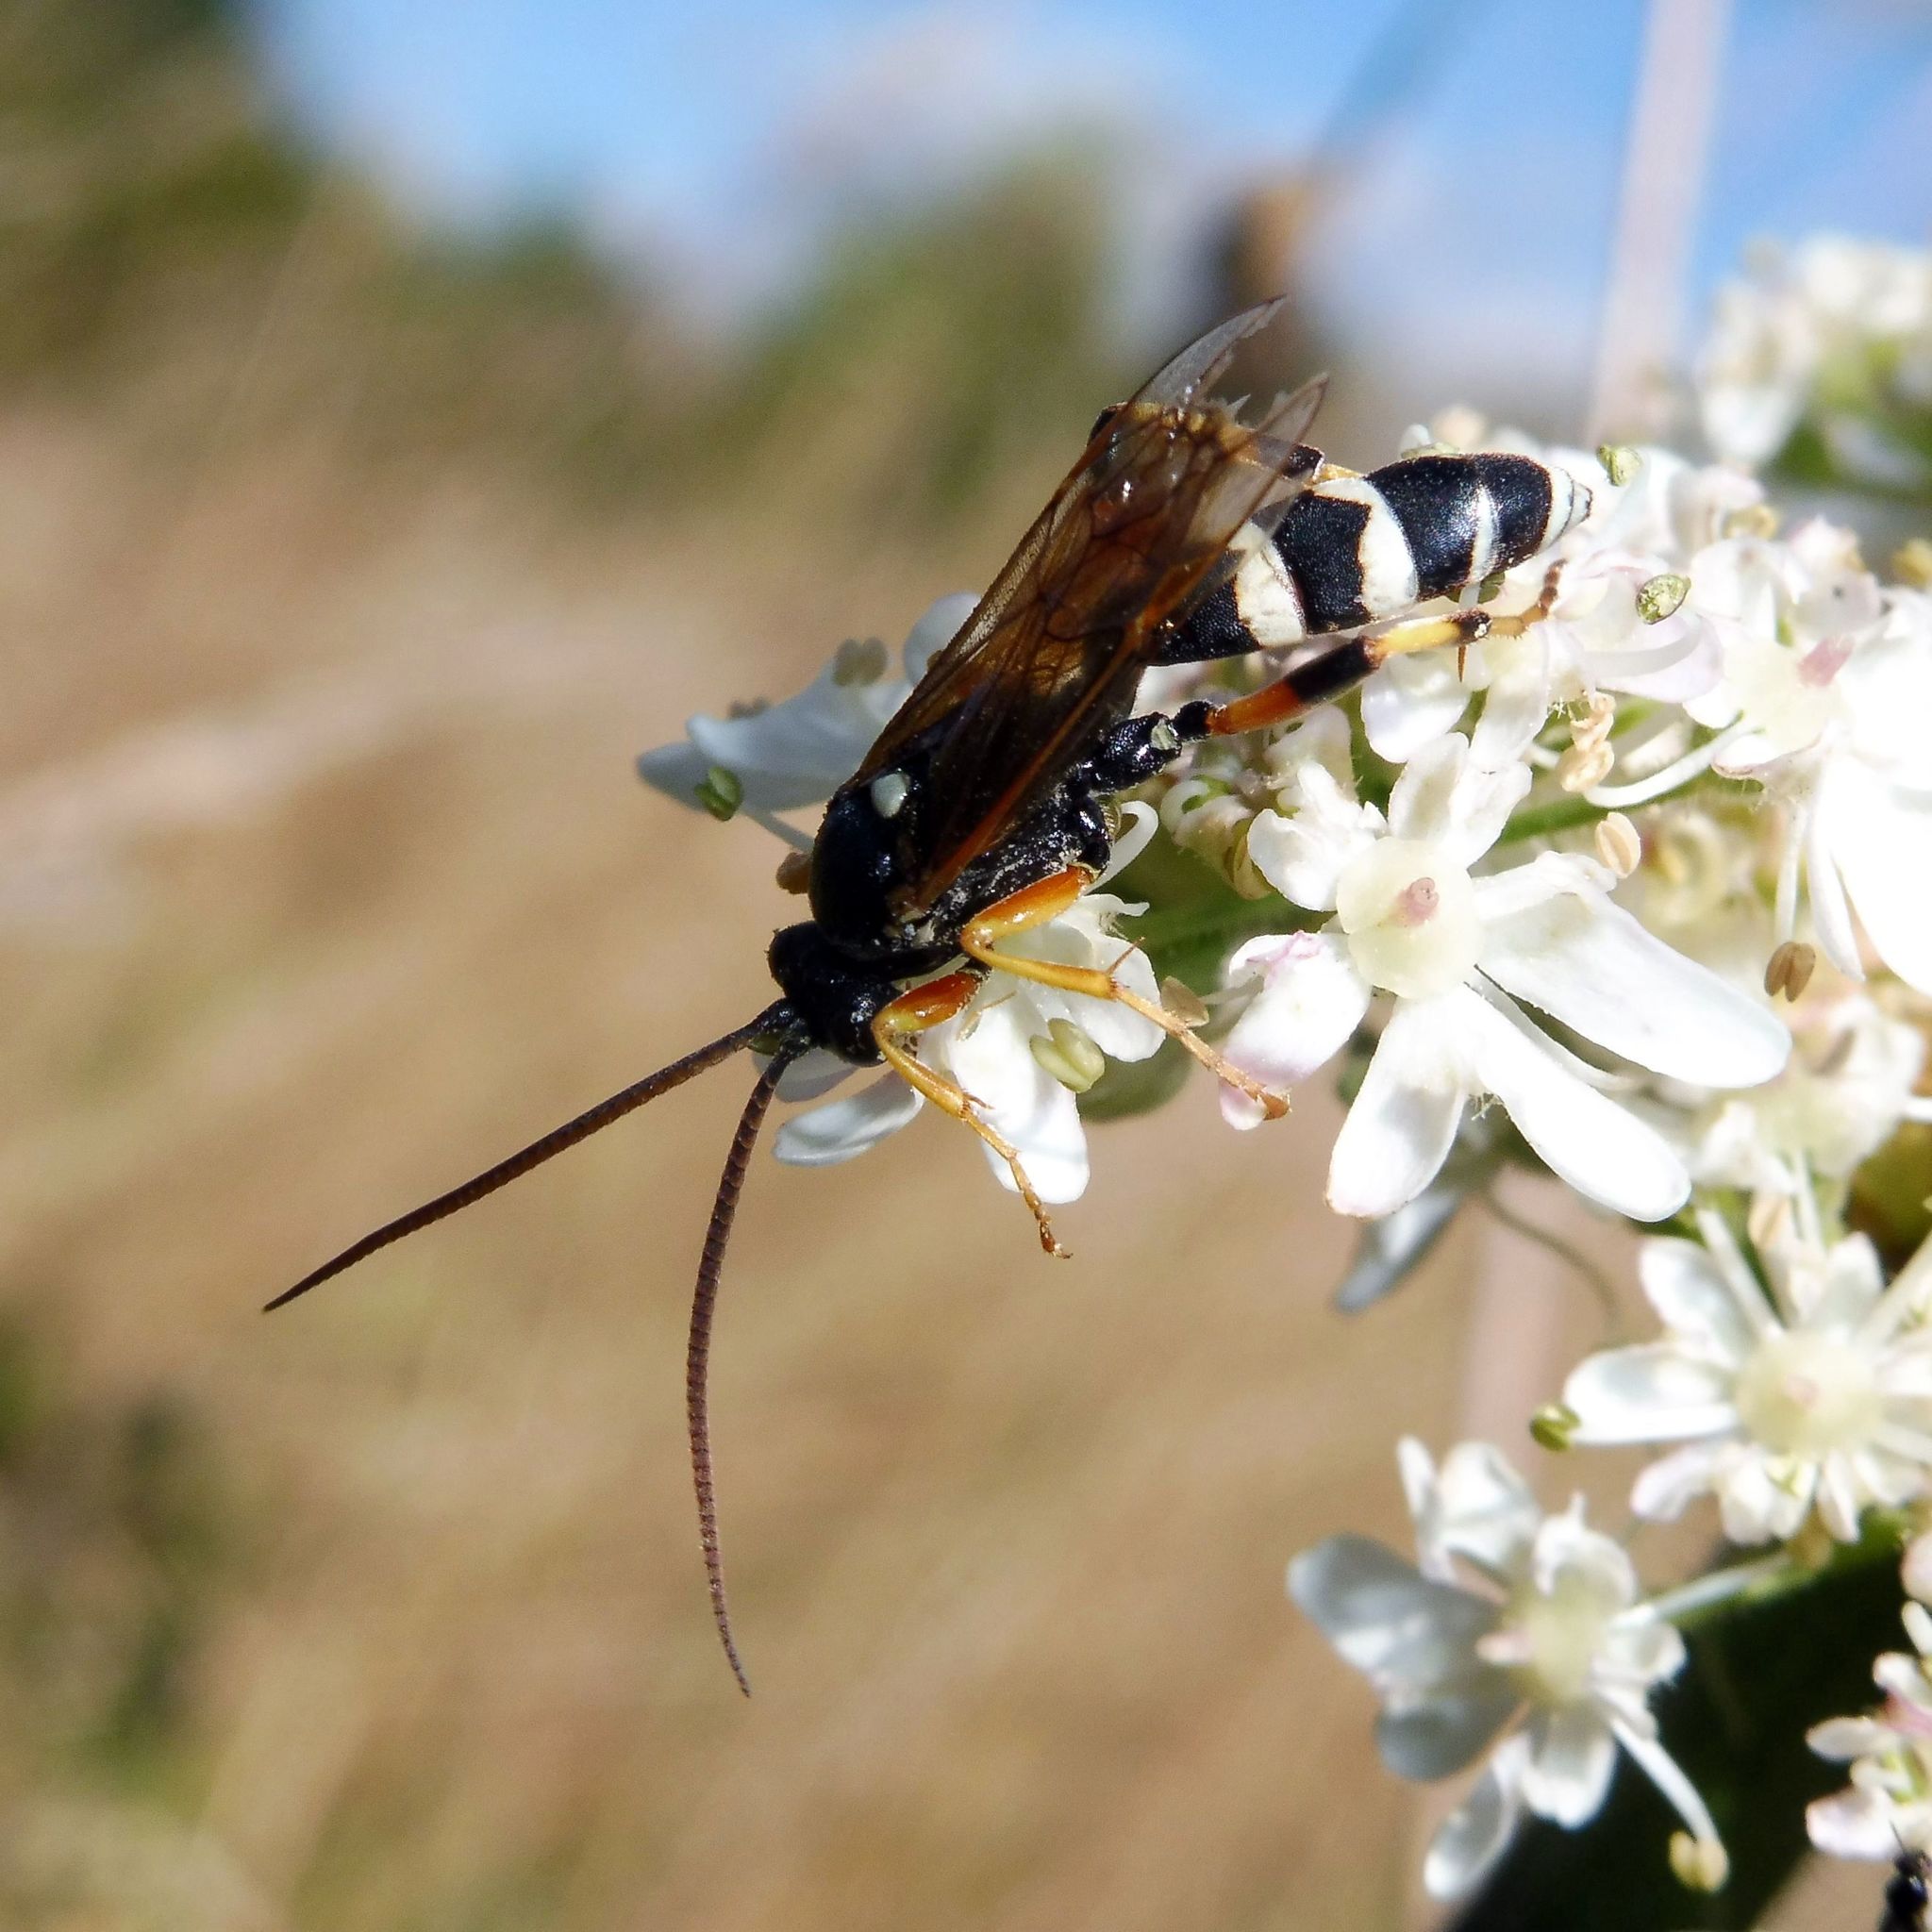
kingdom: Animalia
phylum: Arthropoda
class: Insecta
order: Hymenoptera
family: Ichneumonidae
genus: Ichneumon
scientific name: Ichneumon sarcitorius
